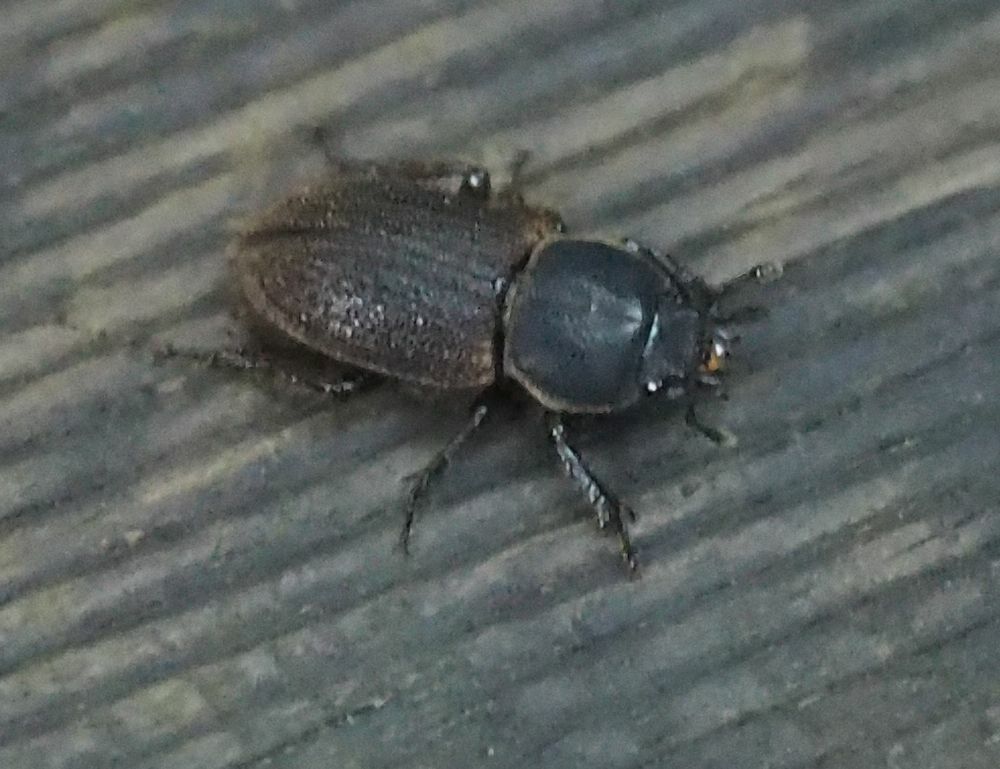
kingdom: Animalia
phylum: Arthropoda
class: Insecta
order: Coleoptera
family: Lucanidae
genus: Lissotes
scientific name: Lissotes rodwayi
